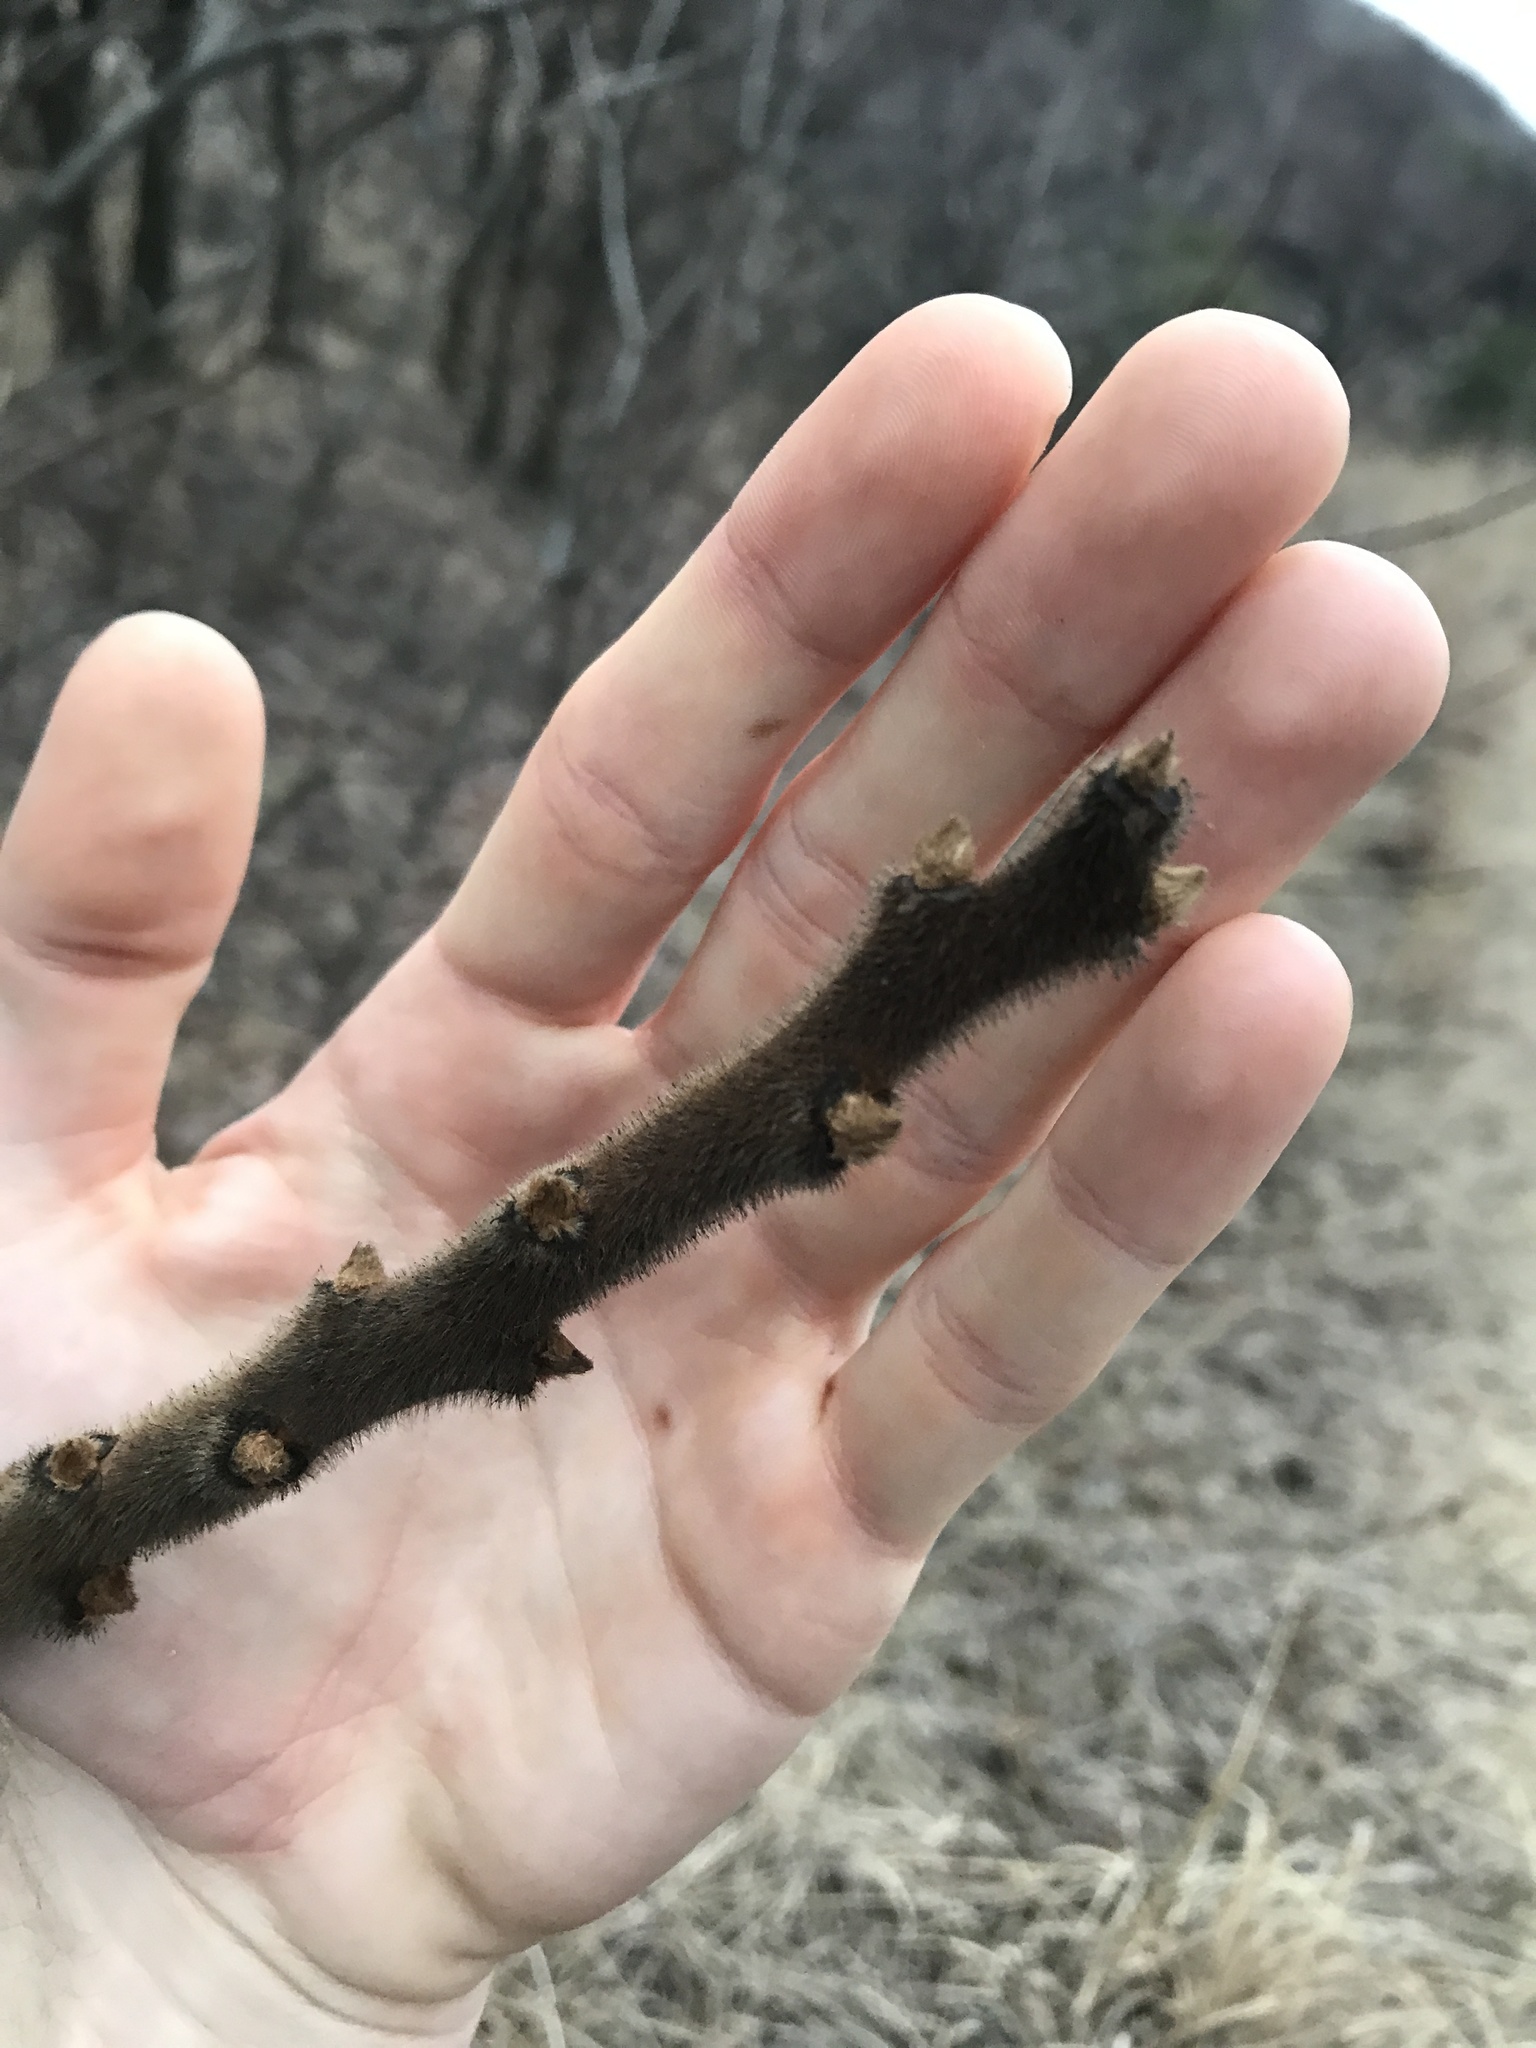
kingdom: Plantae
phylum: Tracheophyta
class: Magnoliopsida
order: Sapindales
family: Anacardiaceae
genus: Rhus
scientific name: Rhus typhina
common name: Staghorn sumac
